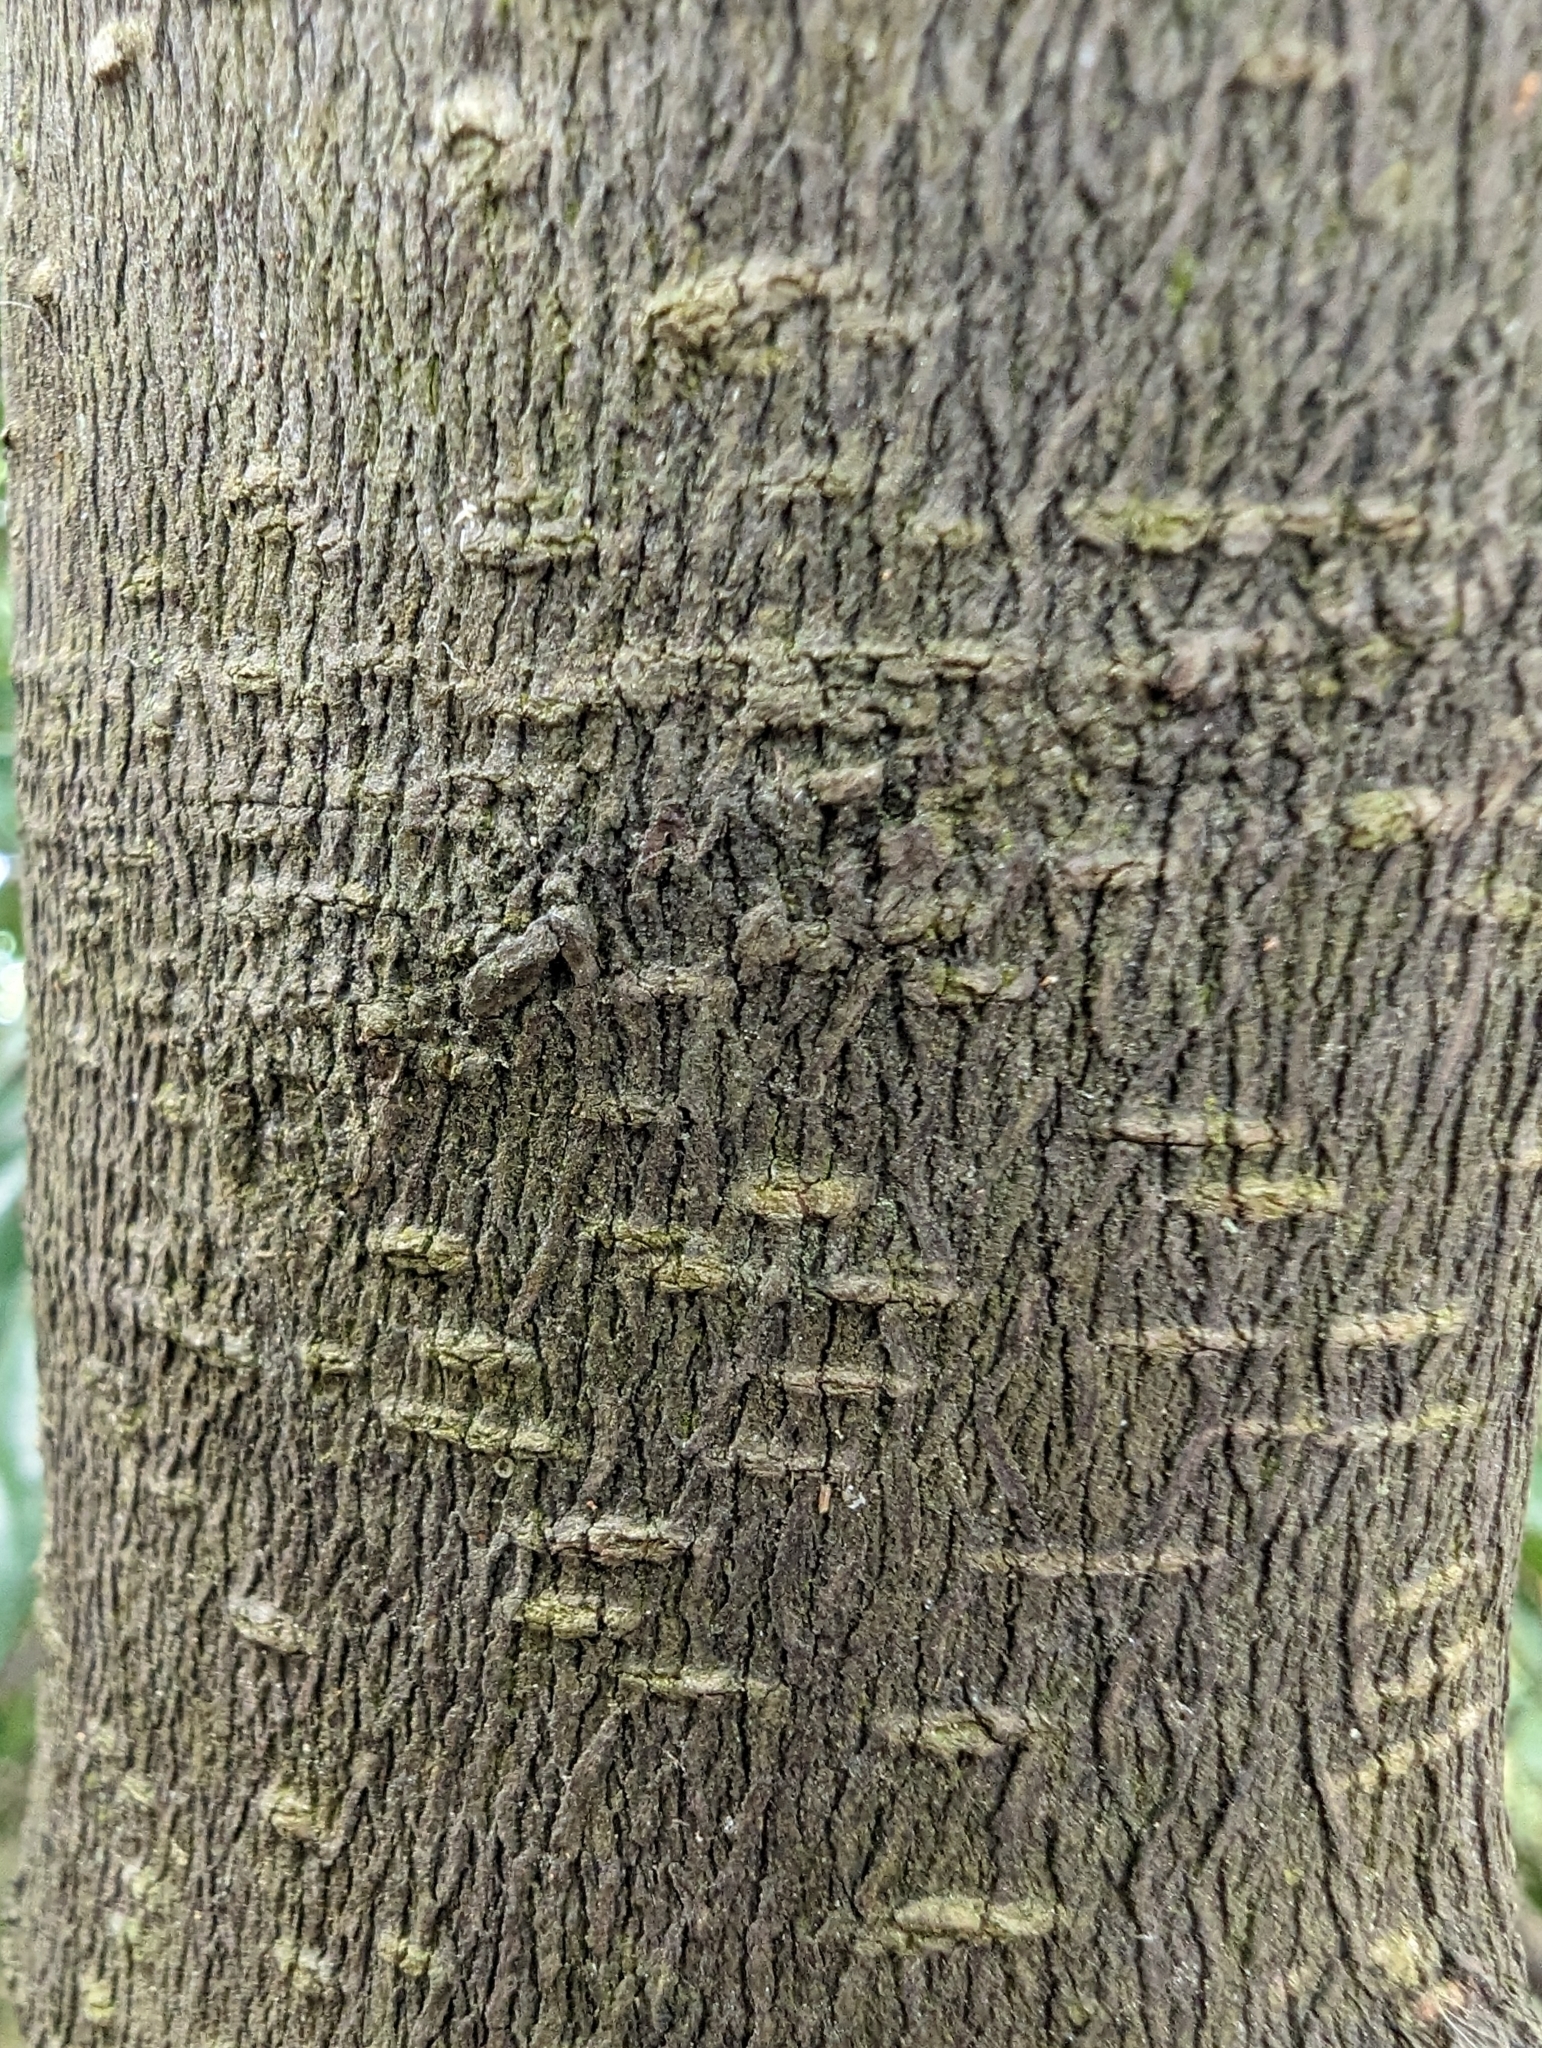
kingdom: Plantae
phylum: Tracheophyta
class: Magnoliopsida
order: Ericales
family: Ebenaceae
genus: Diospyros
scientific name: Diospyros eriantha
